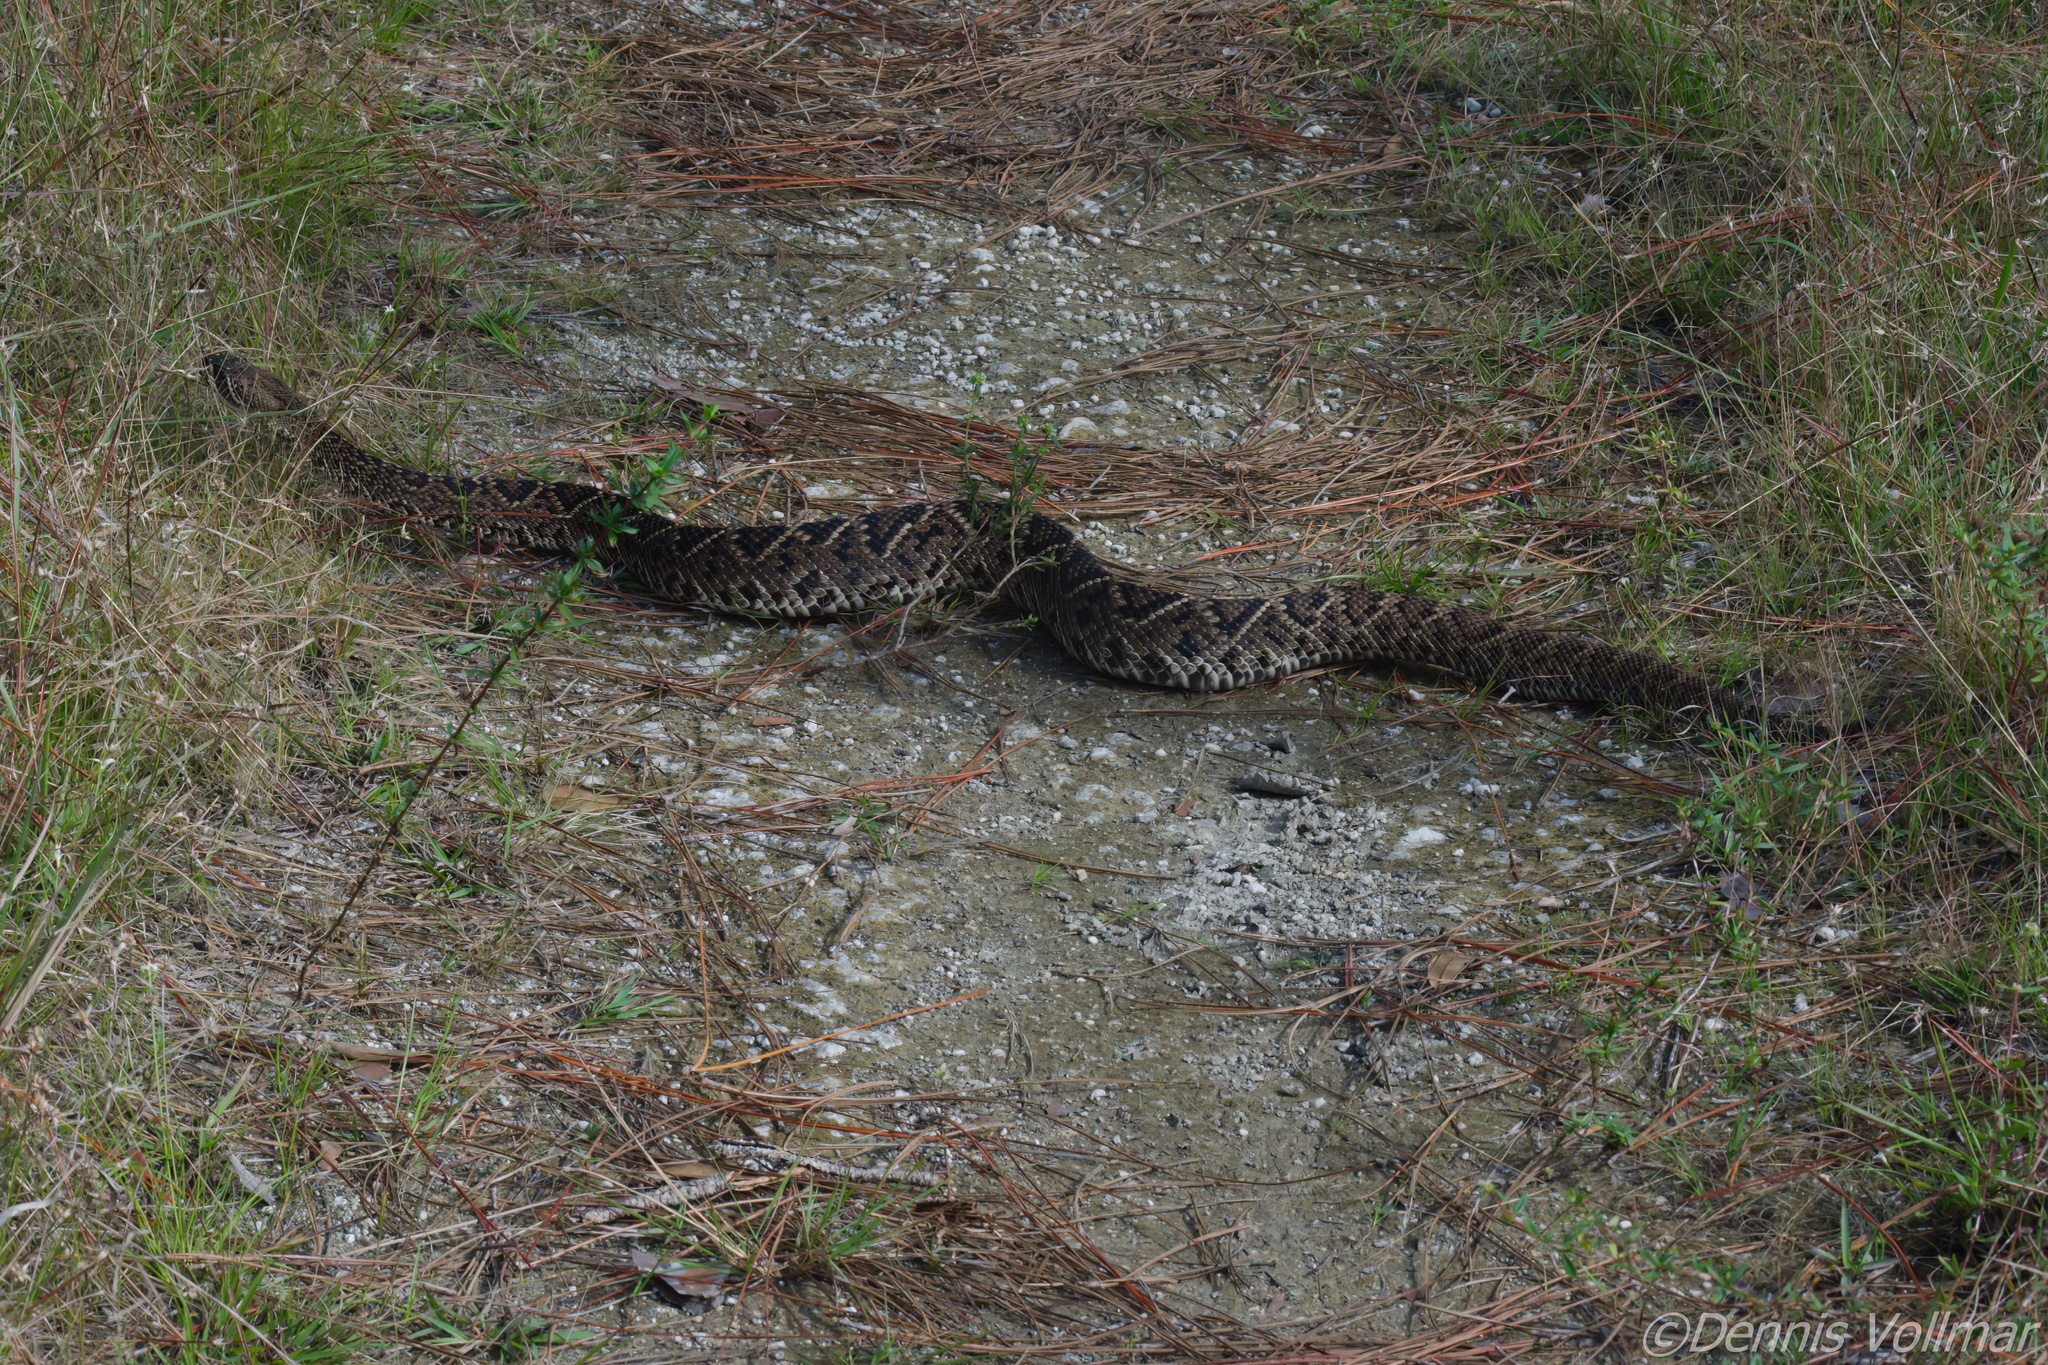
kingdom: Animalia
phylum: Chordata
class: Squamata
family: Viperidae
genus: Crotalus
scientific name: Crotalus adamanteus
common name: Eastern diamondback rattlesnake
